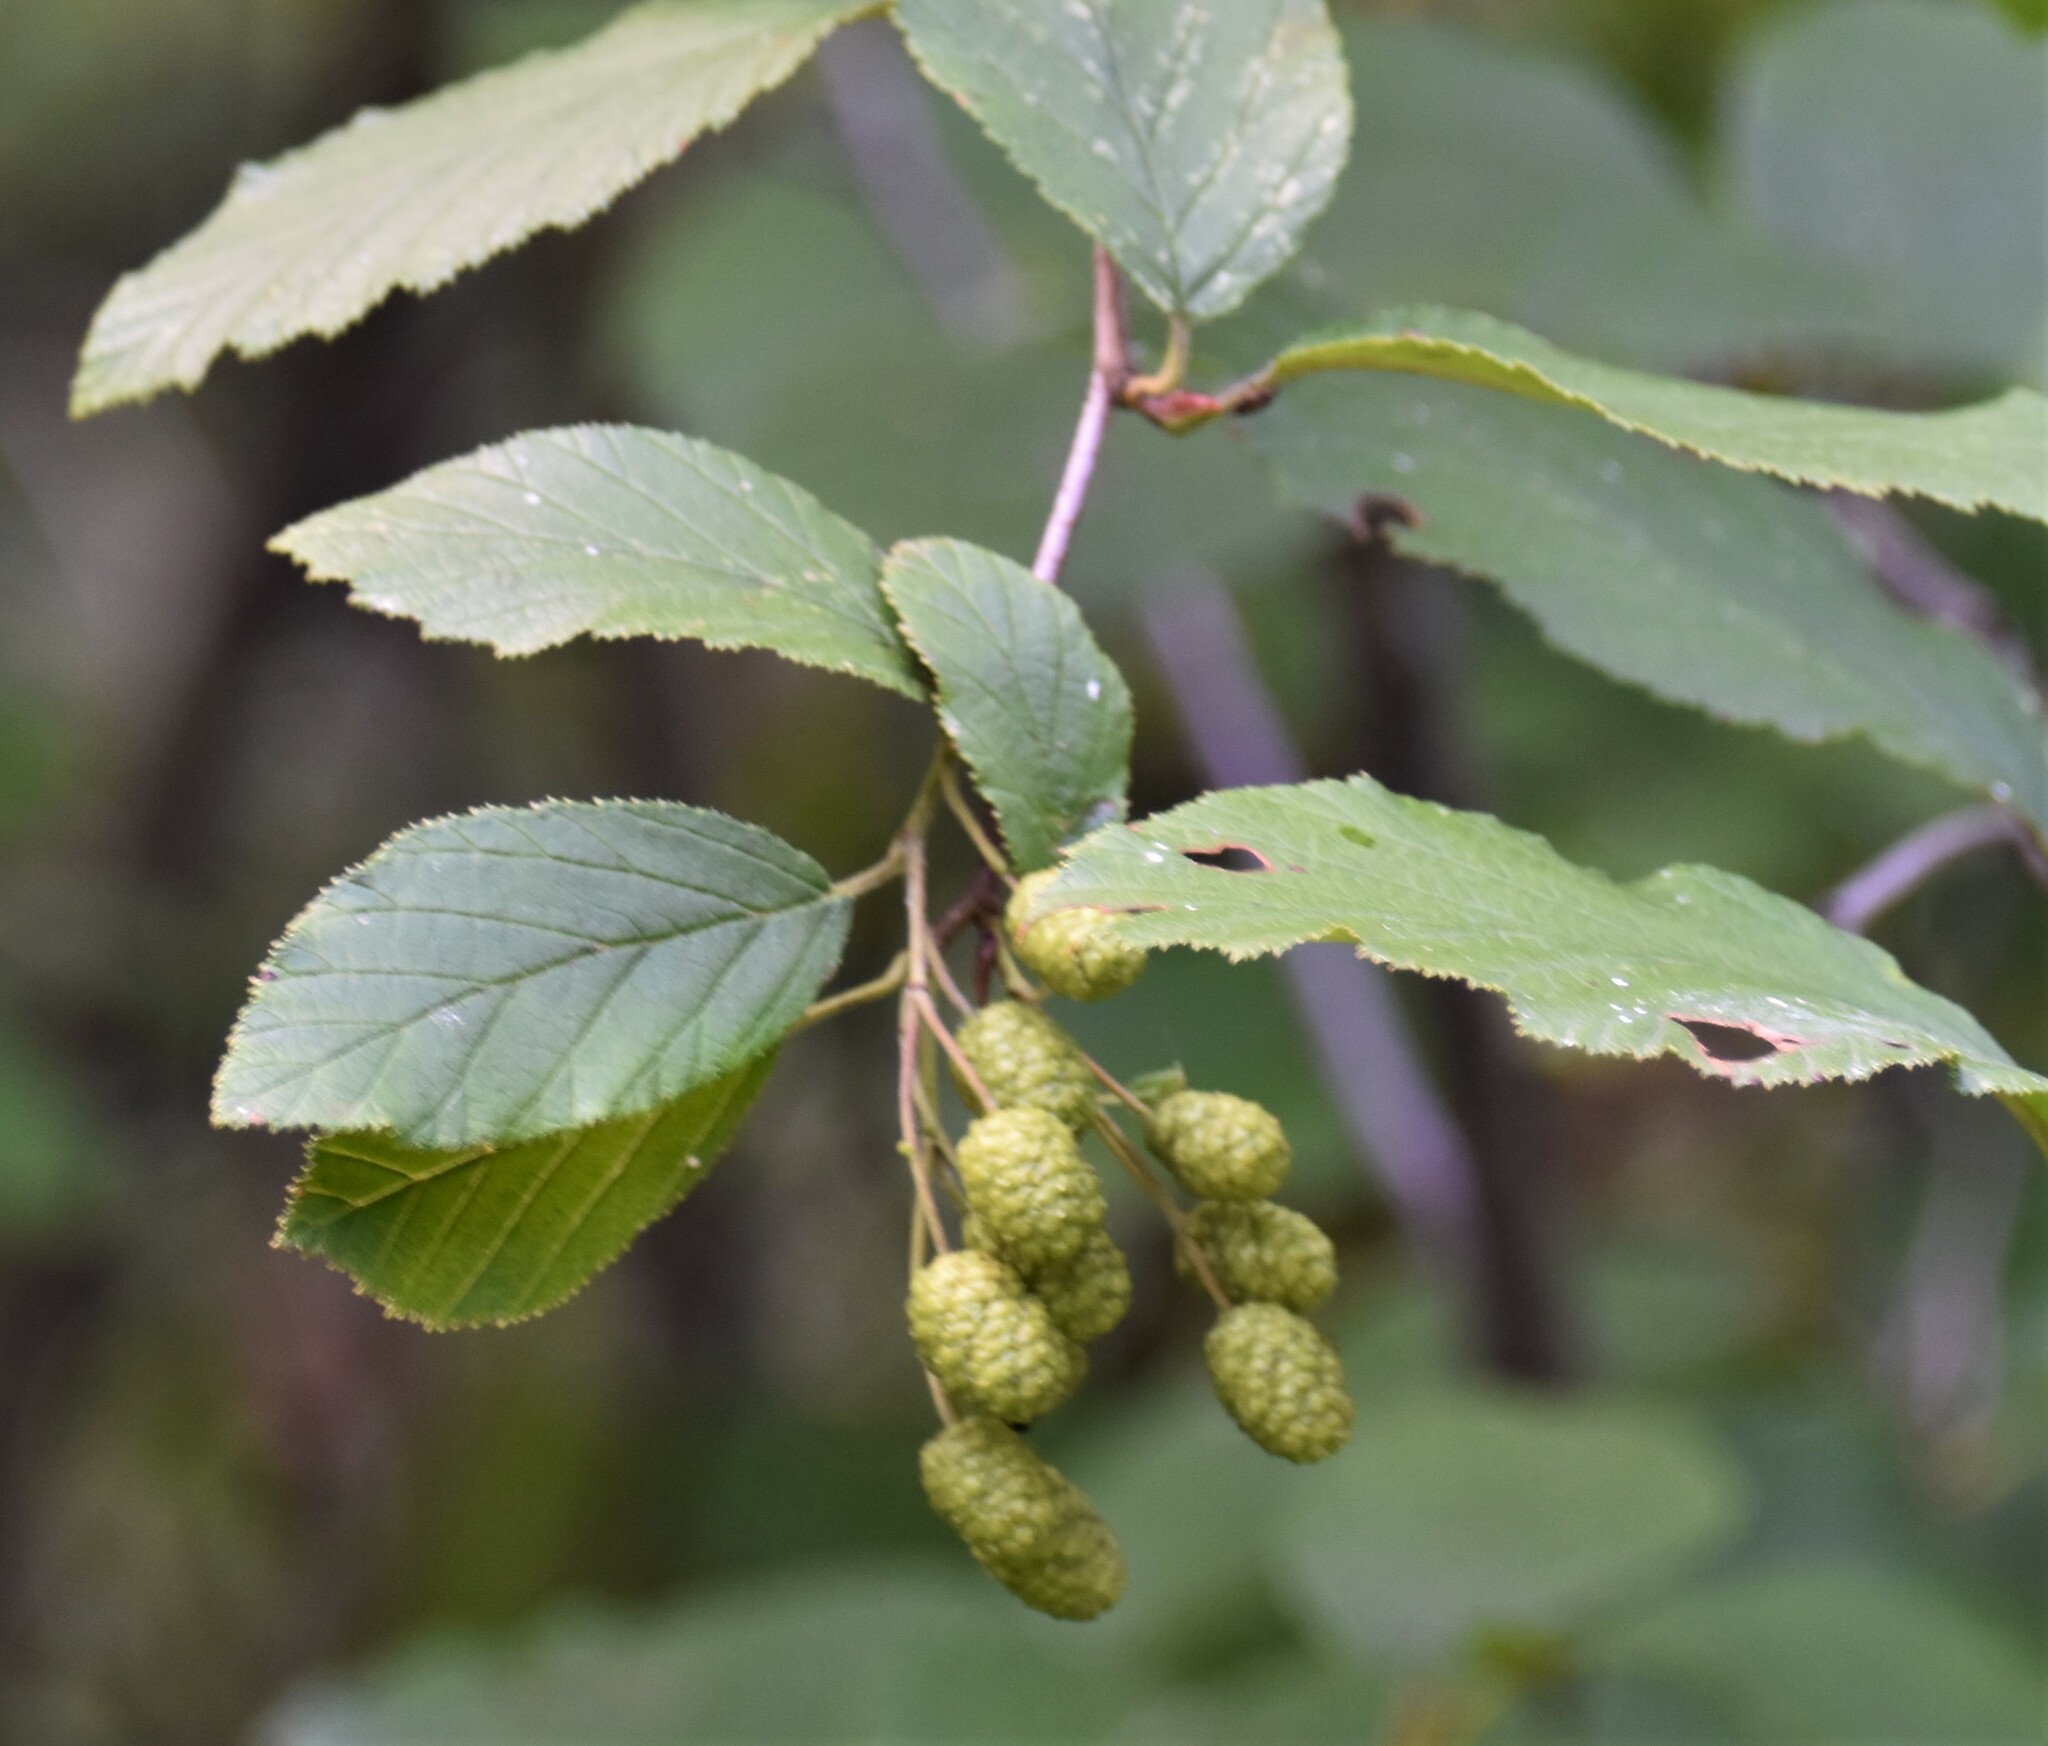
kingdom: Plantae
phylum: Tracheophyta
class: Magnoliopsida
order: Fagales
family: Betulaceae
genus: Alnus
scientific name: Alnus alnobetula
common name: Green alder
